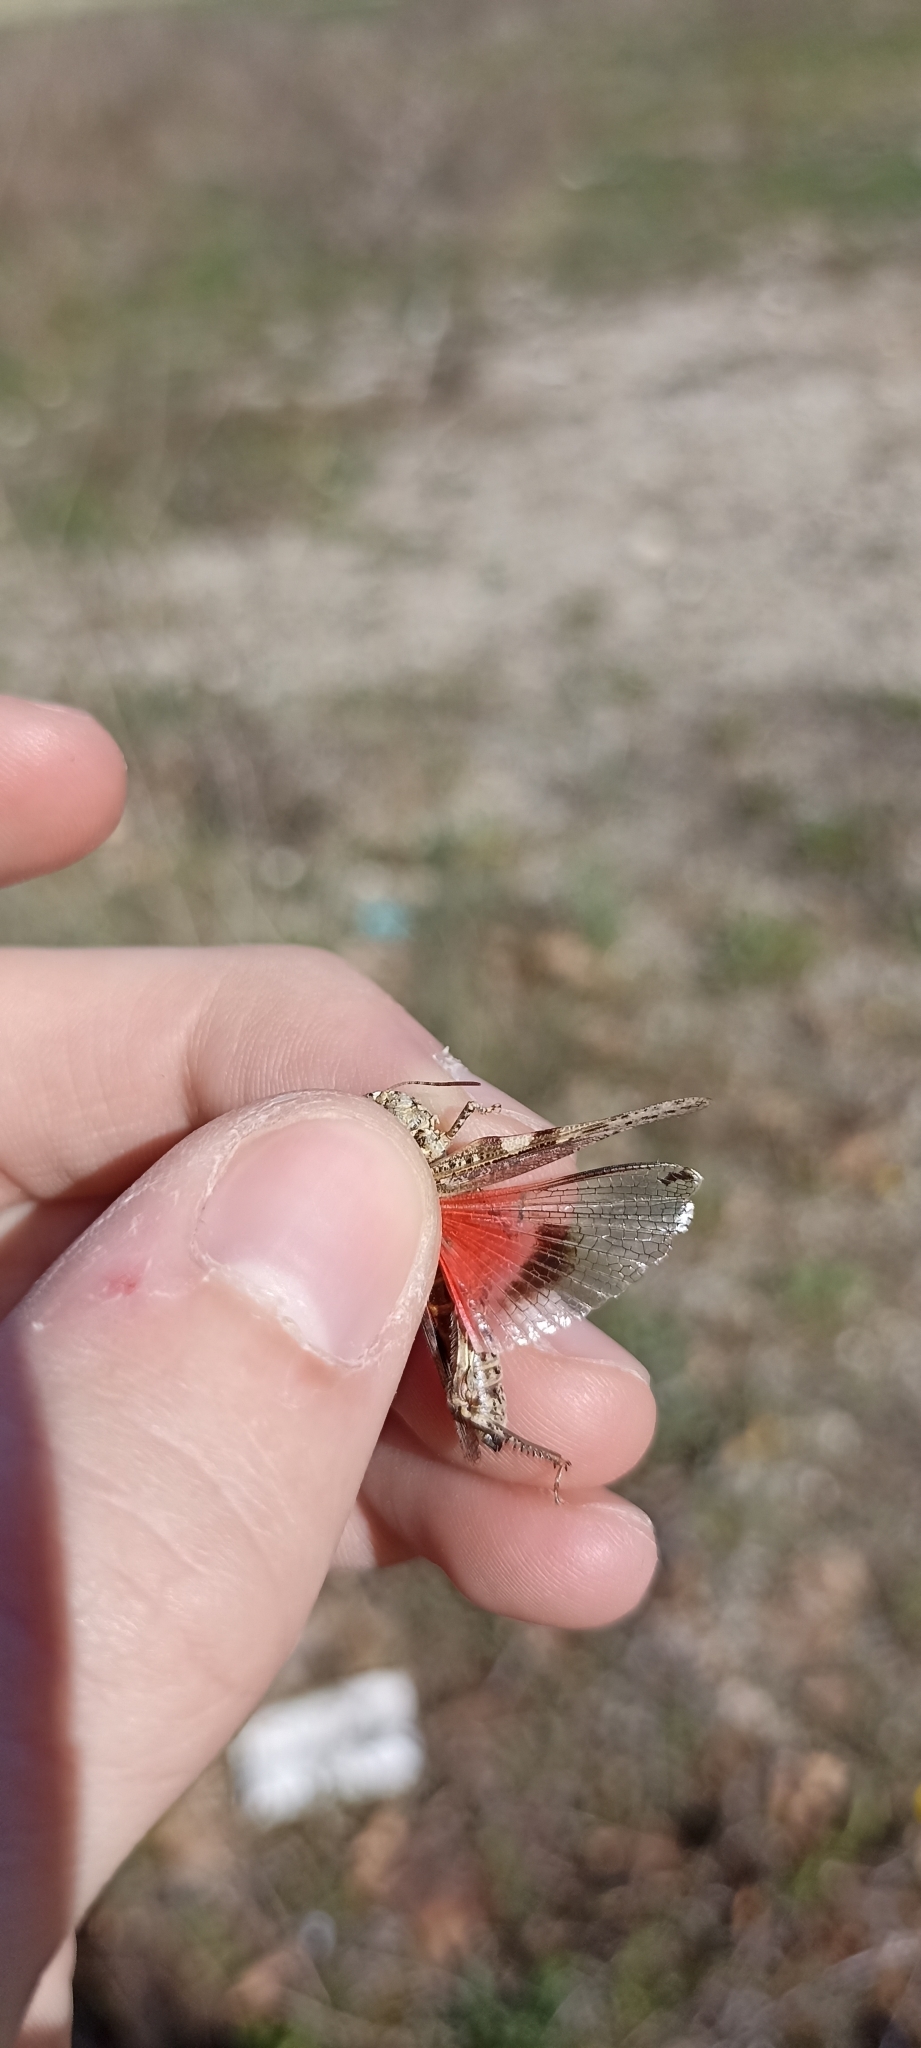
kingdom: Animalia
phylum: Arthropoda
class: Insecta
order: Orthoptera
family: Acrididae
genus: Acrotylus
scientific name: Acrotylus insubricus
